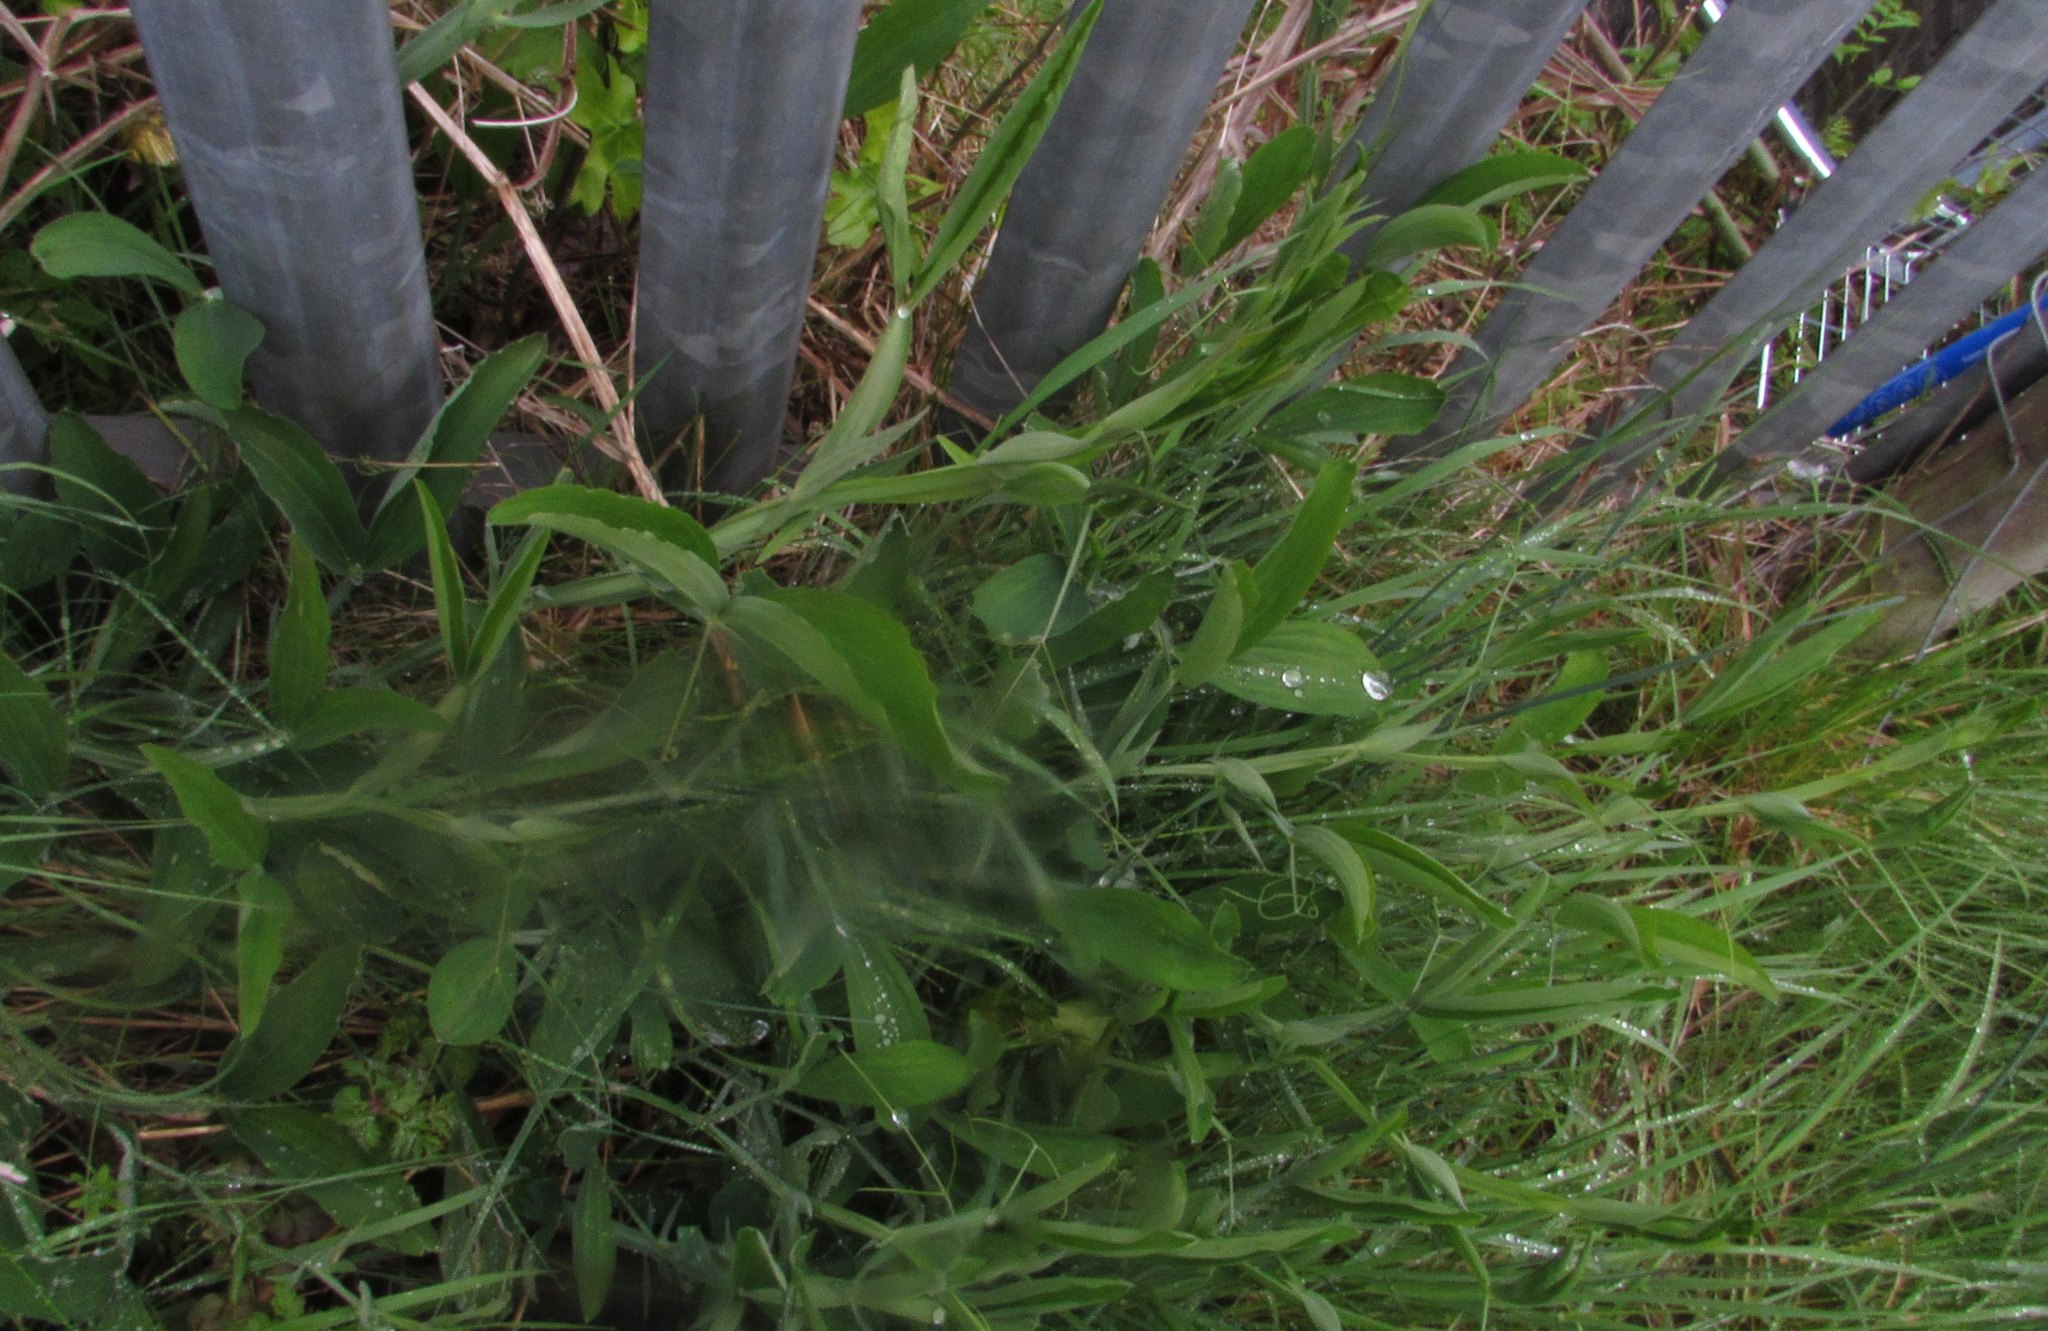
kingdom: Plantae
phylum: Tracheophyta
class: Magnoliopsida
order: Fabales
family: Fabaceae
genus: Lathyrus
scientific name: Lathyrus latifolius
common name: Perennial pea
